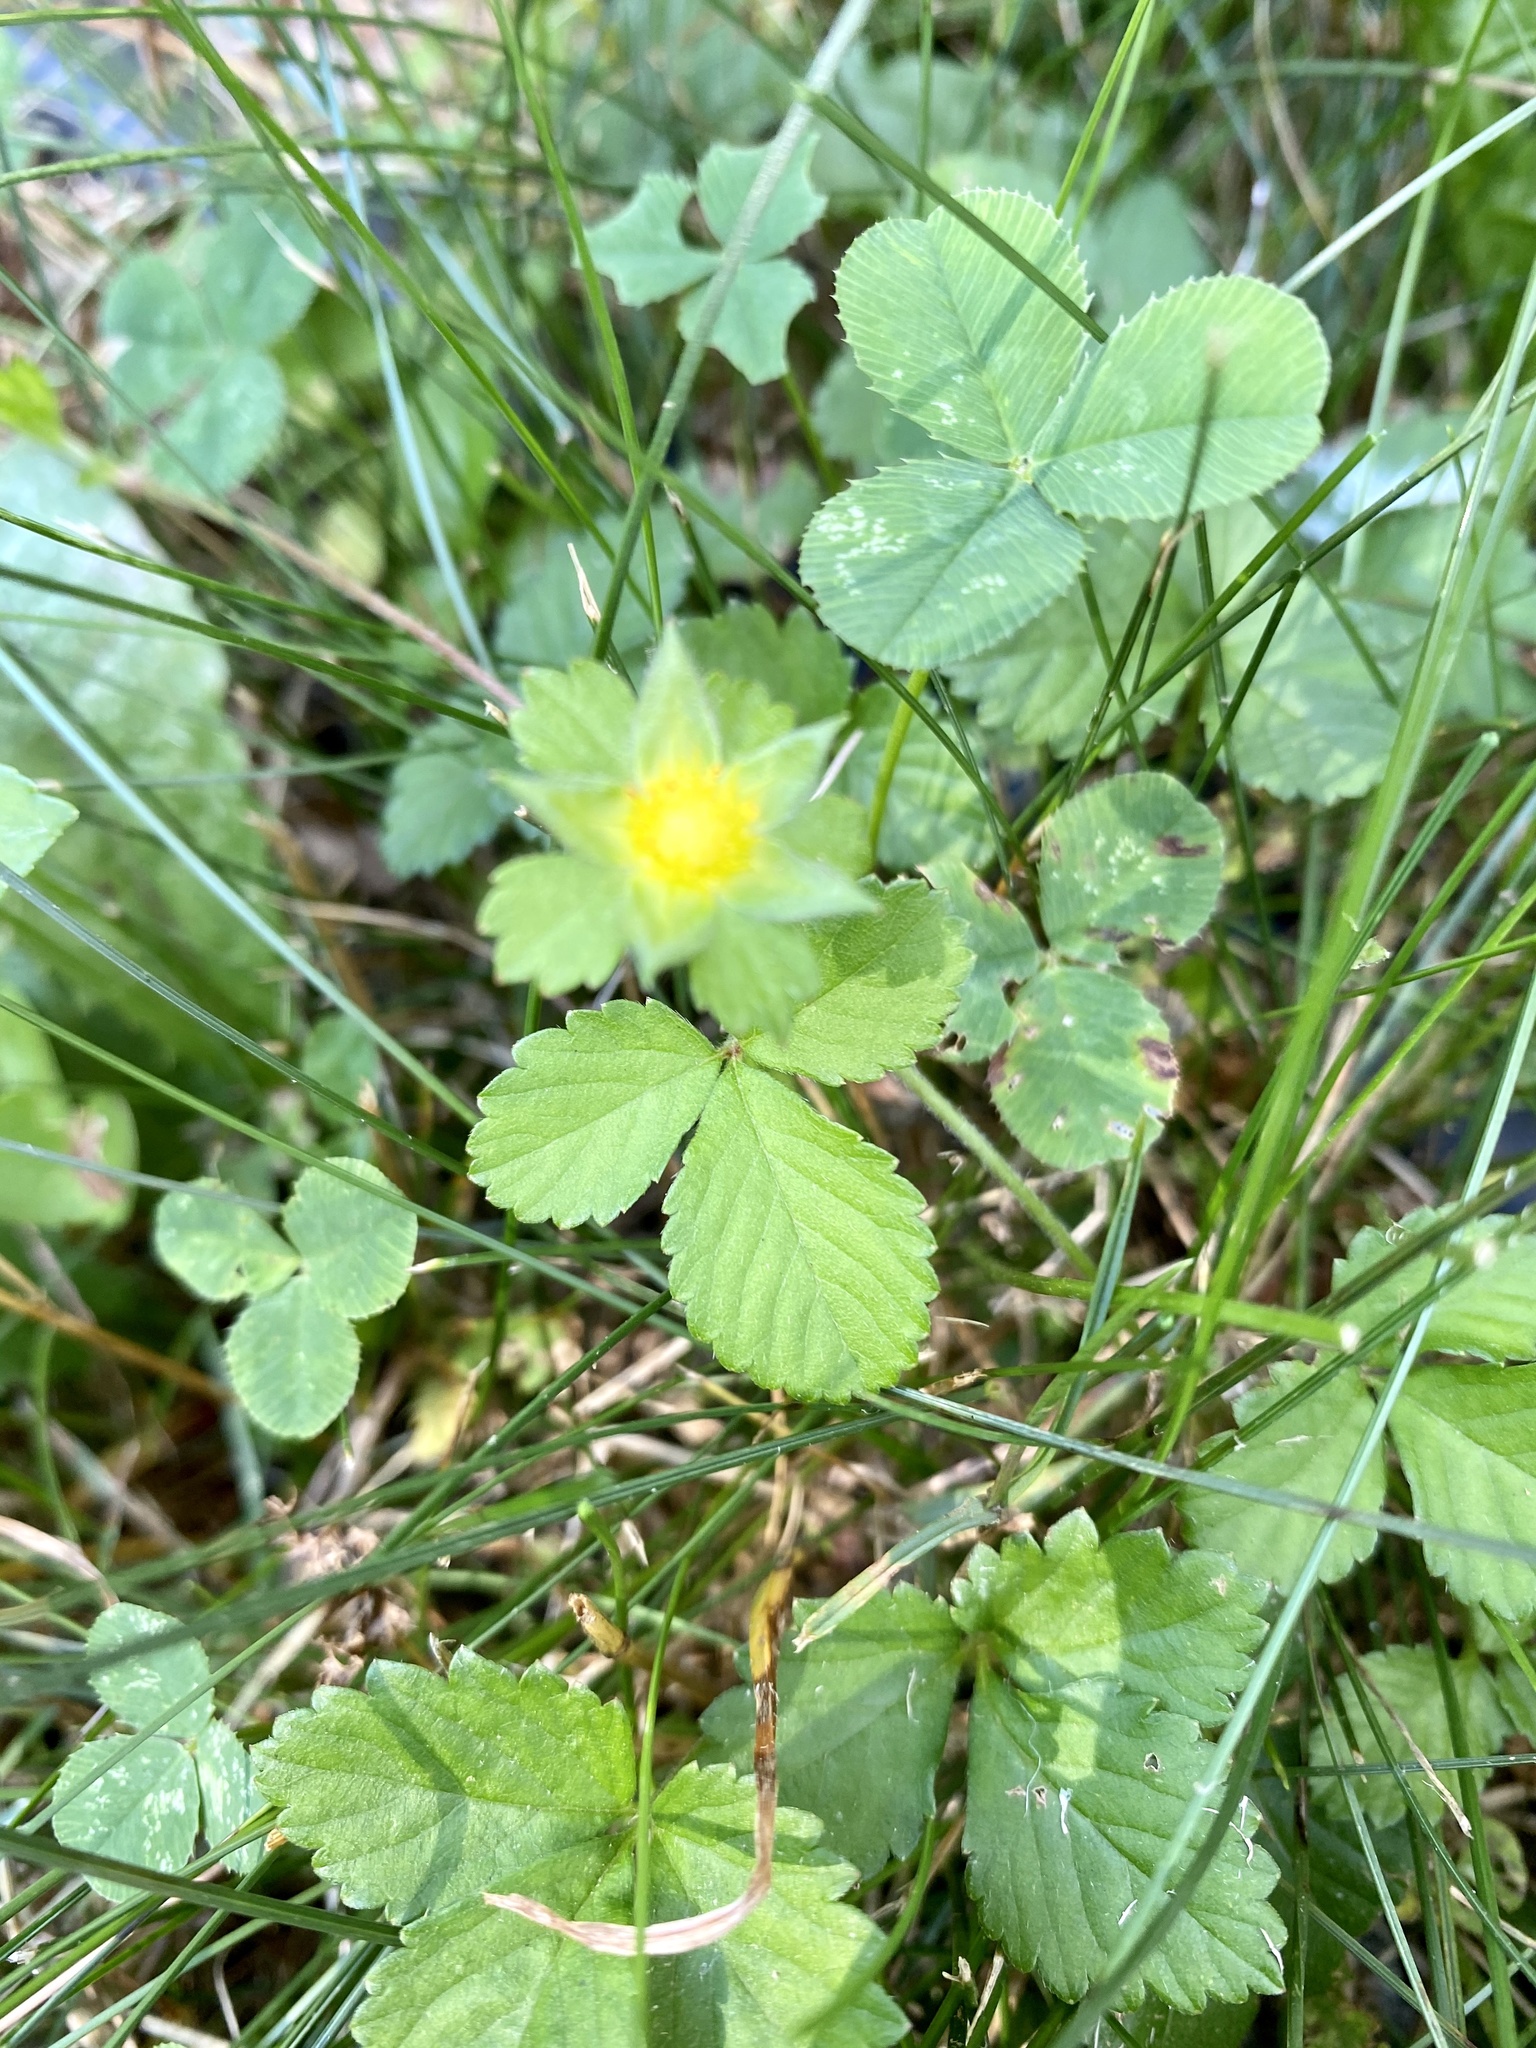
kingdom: Plantae
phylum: Tracheophyta
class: Magnoliopsida
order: Rosales
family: Rosaceae
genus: Potentilla
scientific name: Potentilla indica
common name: Yellow-flowered strawberry
